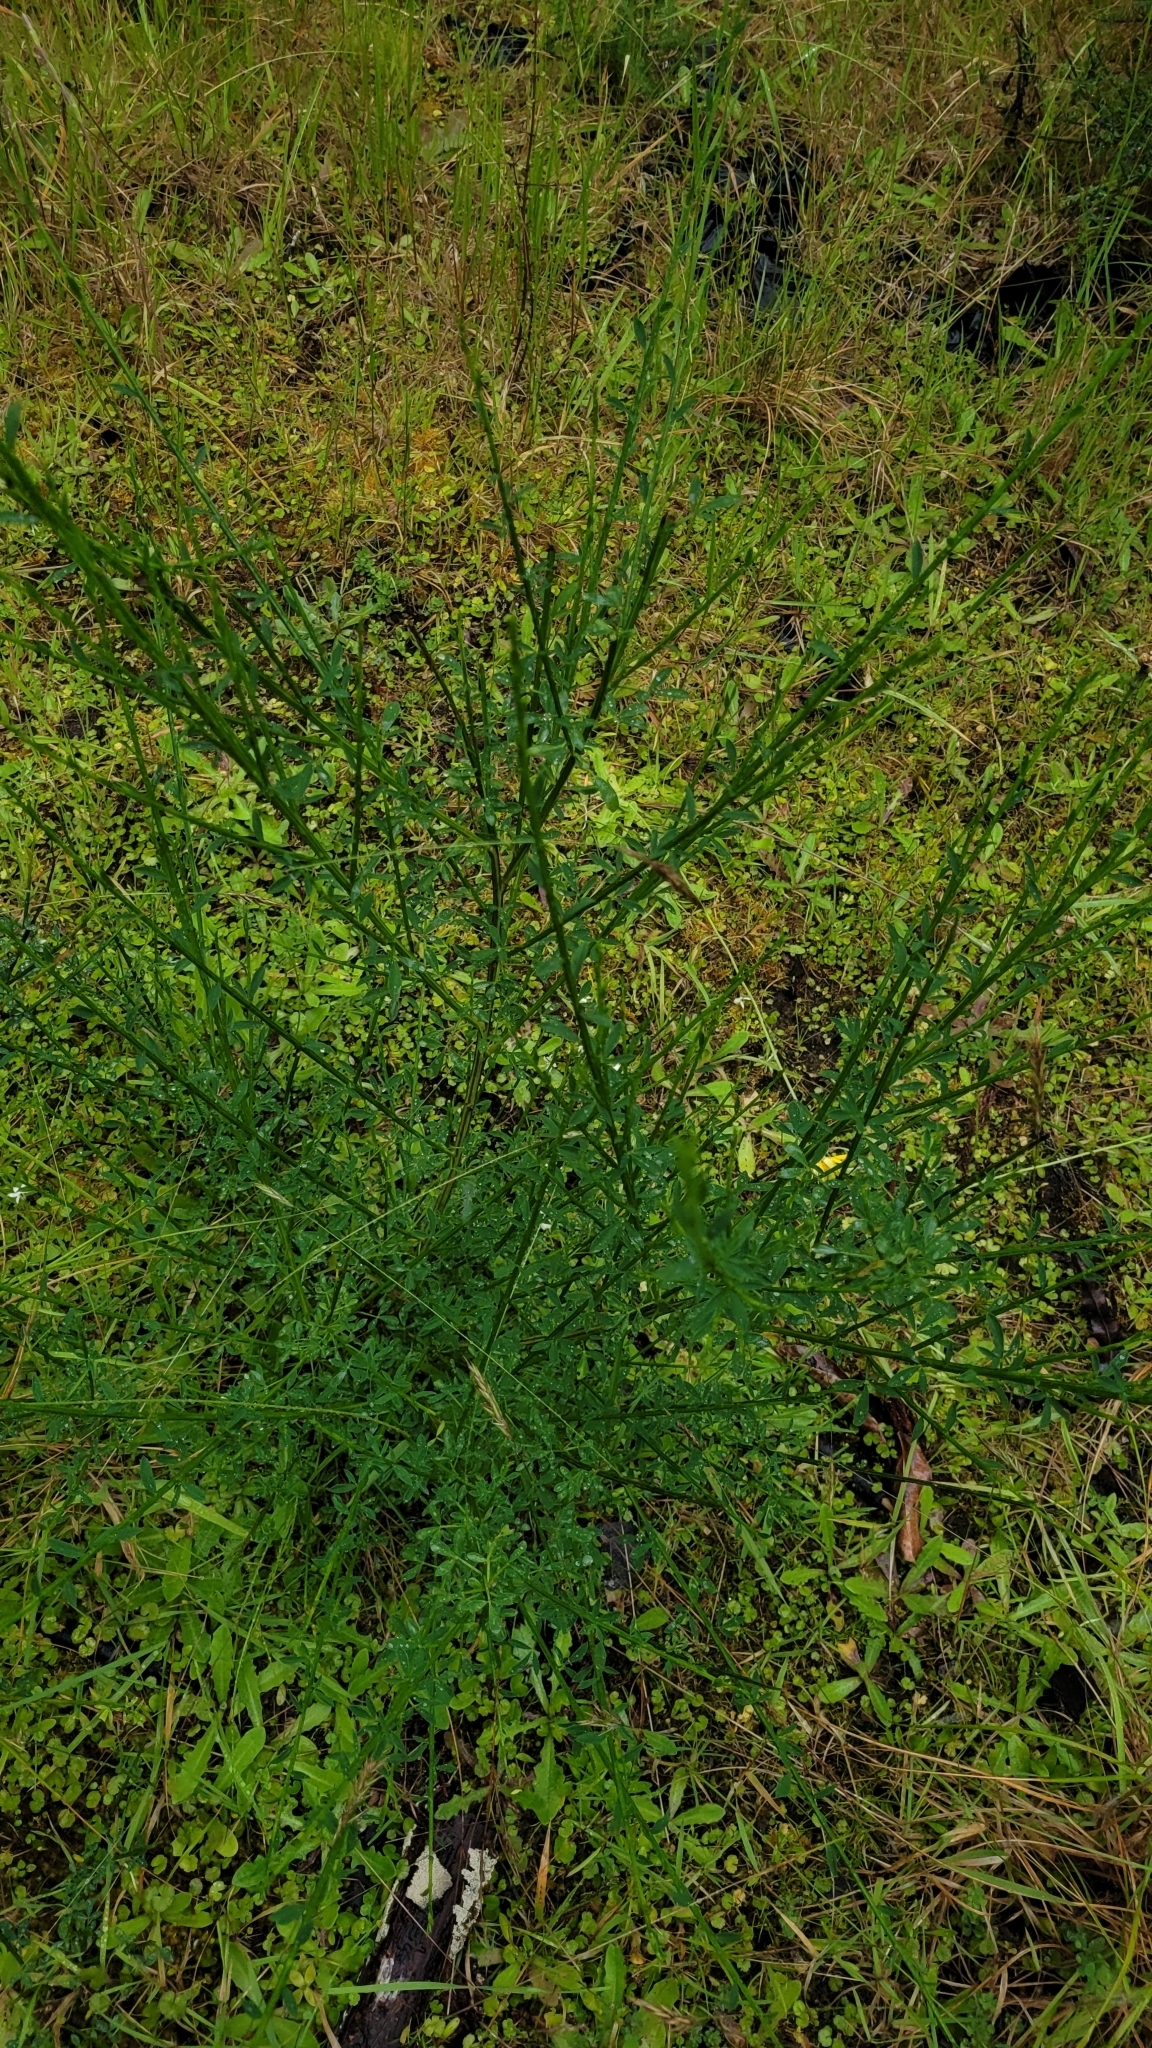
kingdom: Plantae
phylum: Tracheophyta
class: Magnoliopsida
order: Fabales
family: Fabaceae
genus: Cytisus
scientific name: Cytisus scoparius
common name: Scotch broom
